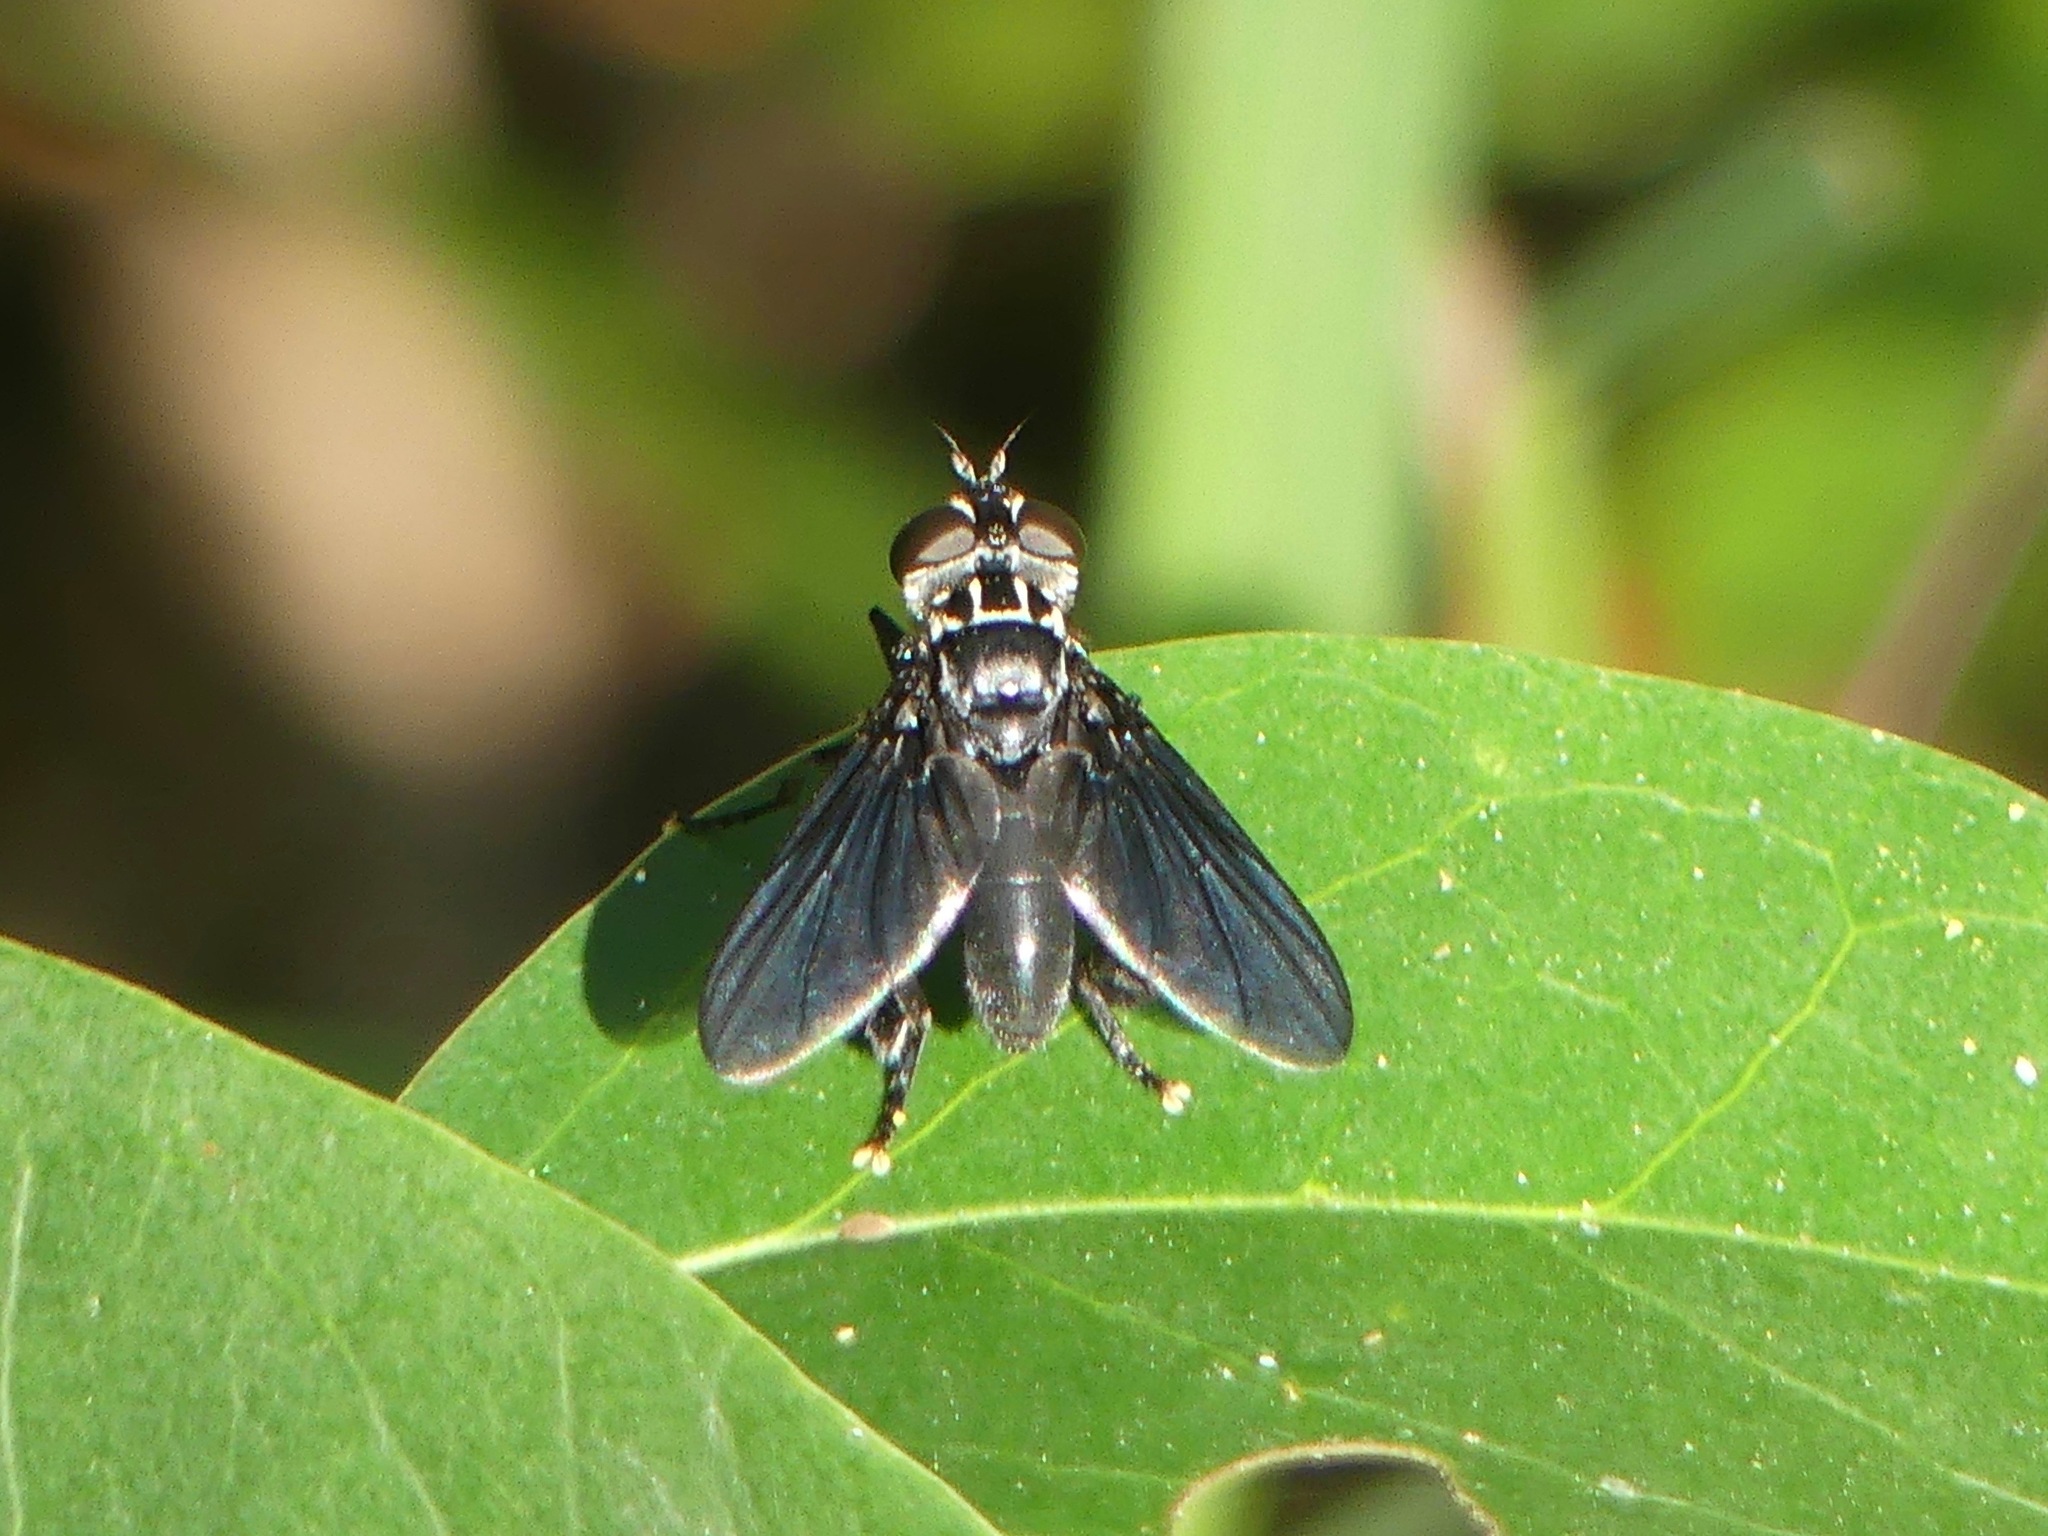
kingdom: Animalia
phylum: Arthropoda
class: Insecta
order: Diptera
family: Tachinidae
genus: Trichopoda
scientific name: Trichopoda lanipes
